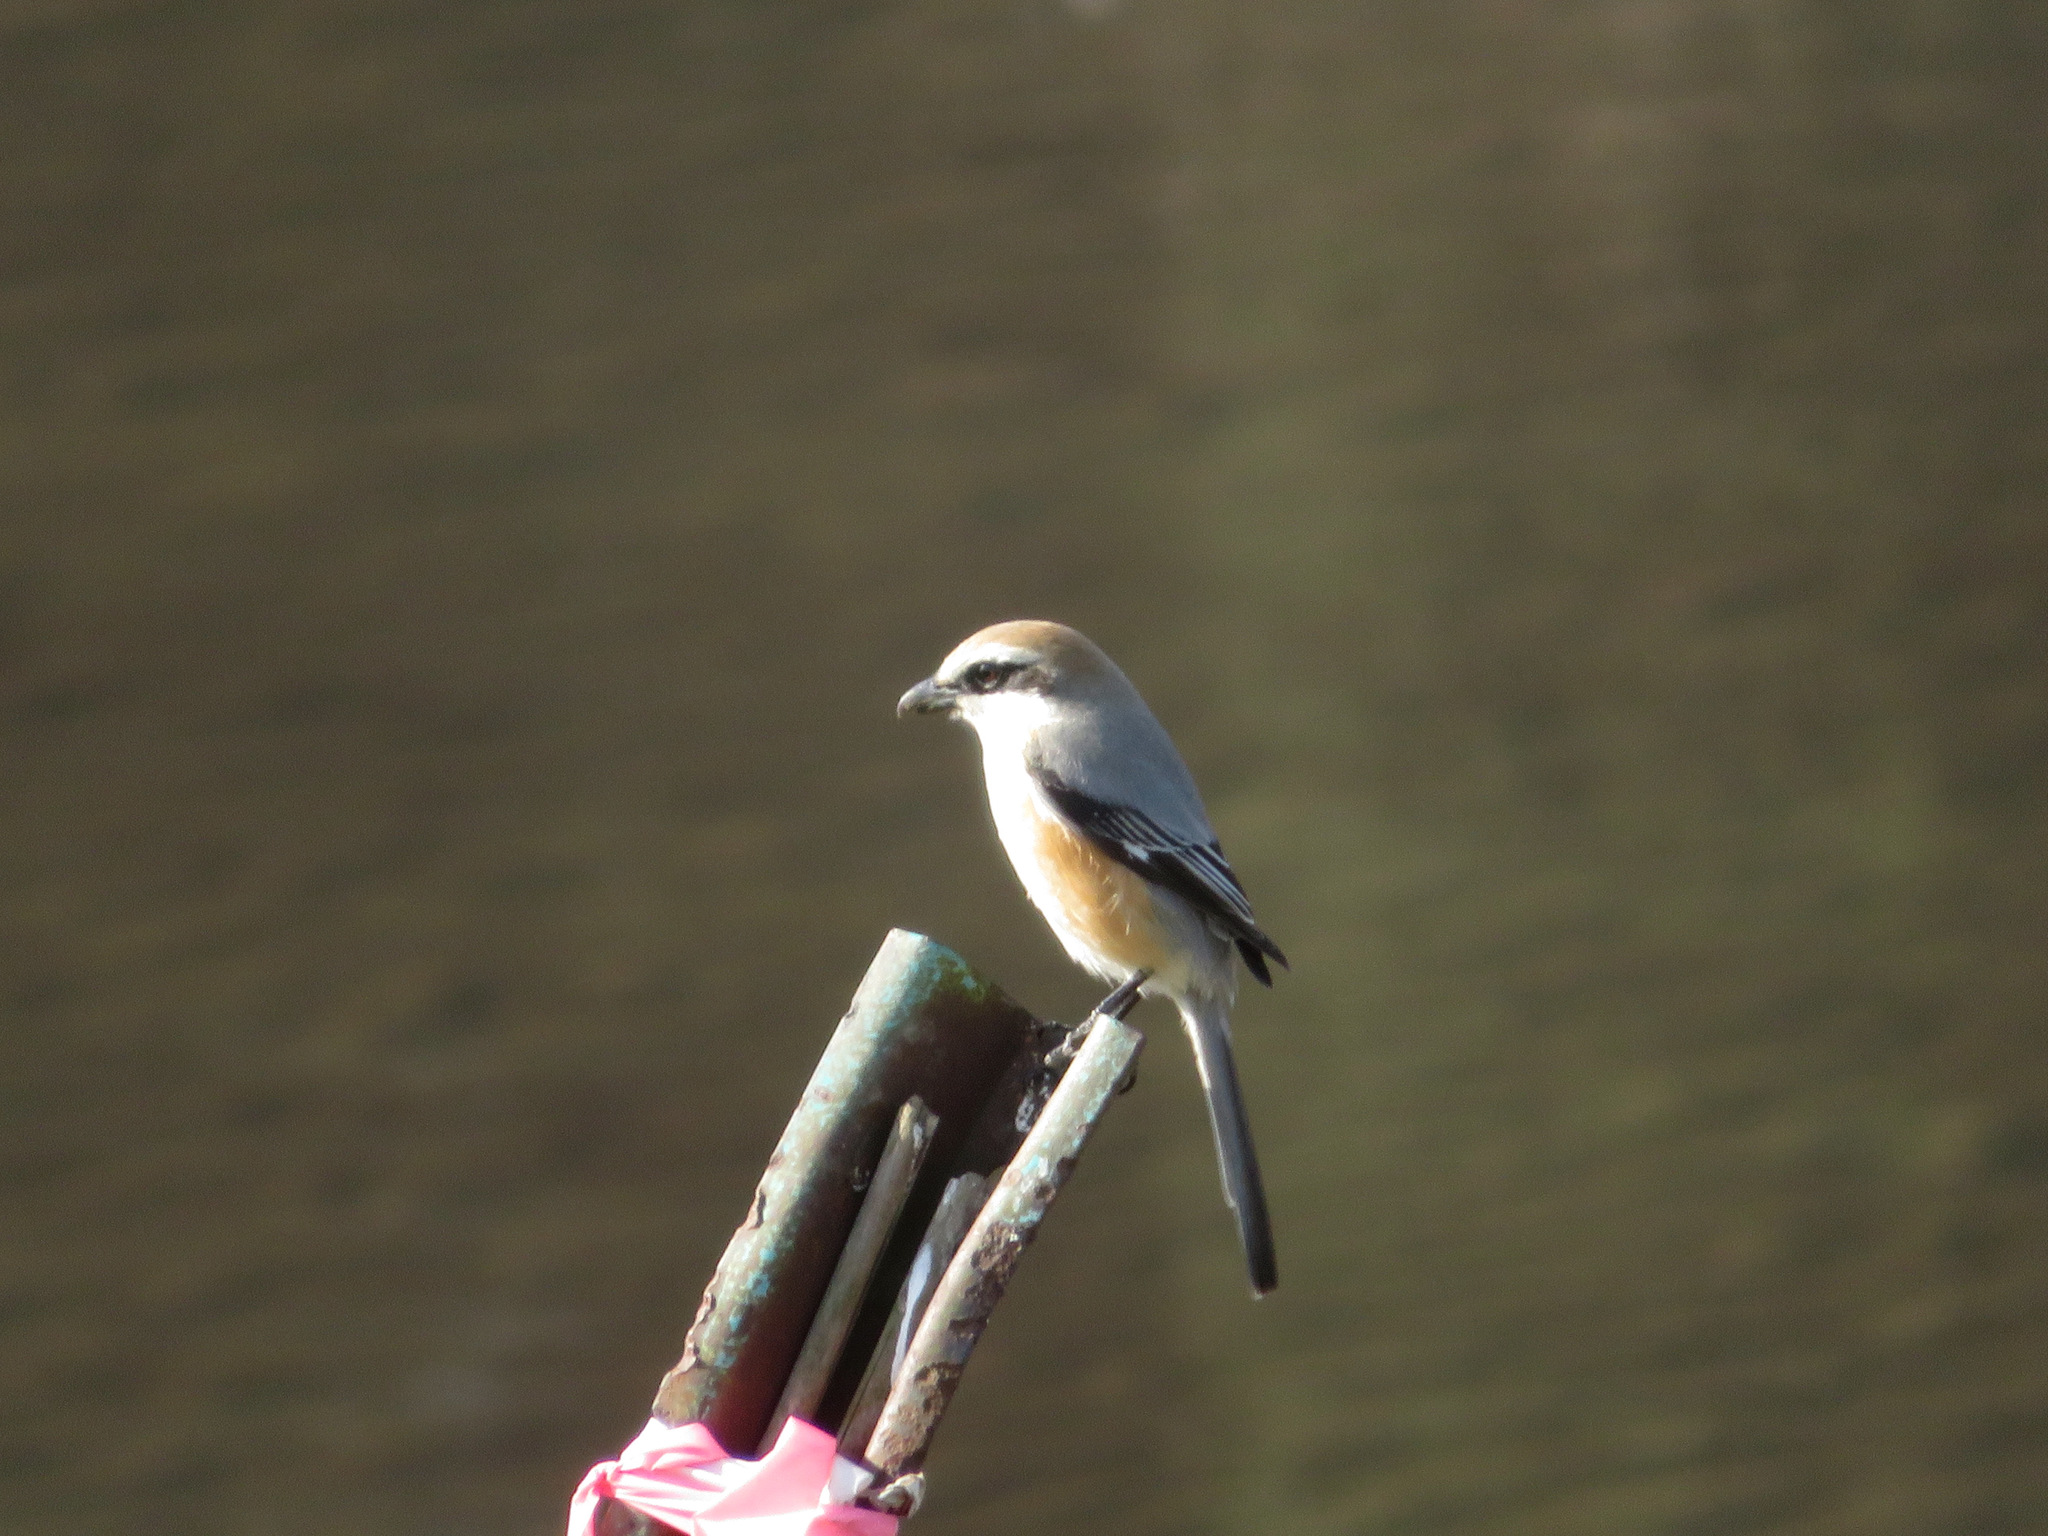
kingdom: Animalia
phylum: Chordata
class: Aves
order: Passeriformes
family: Laniidae
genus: Lanius
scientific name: Lanius bucephalus
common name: Bull-headed shrike
